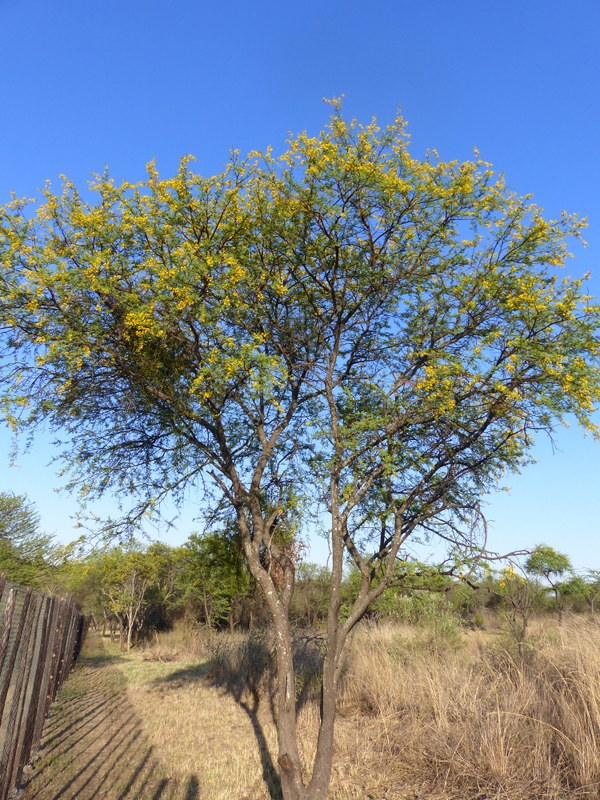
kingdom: Plantae
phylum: Tracheophyta
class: Magnoliopsida
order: Fabales
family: Fabaceae
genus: Vachellia
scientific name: Vachellia karroo
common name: Sweet thorn
